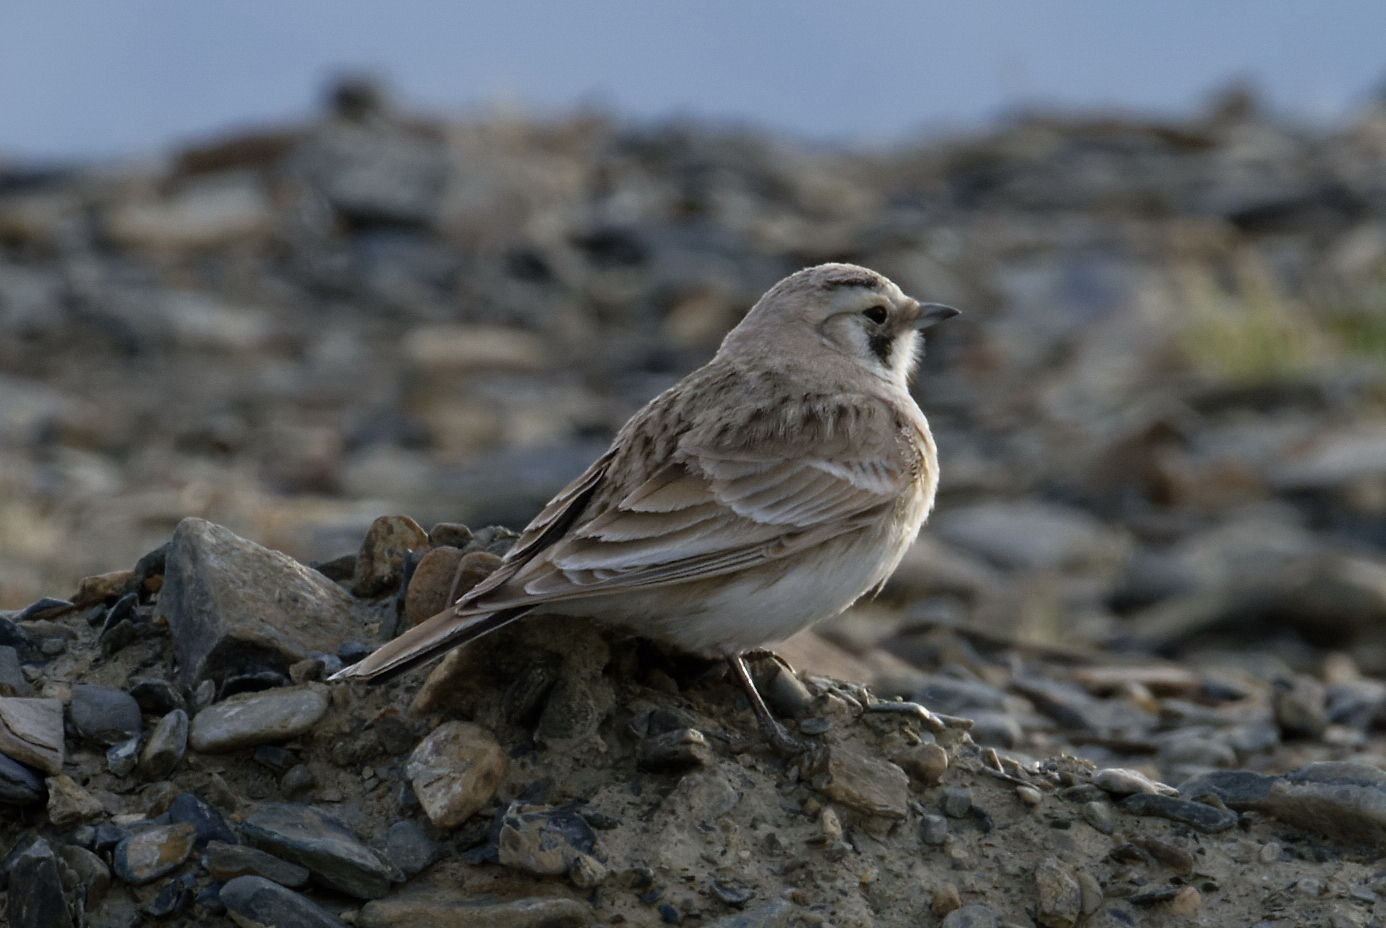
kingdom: Animalia
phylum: Chordata
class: Aves
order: Passeriformes
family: Alaudidae
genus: Eremophila
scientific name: Eremophila alpestris
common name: Horned lark
